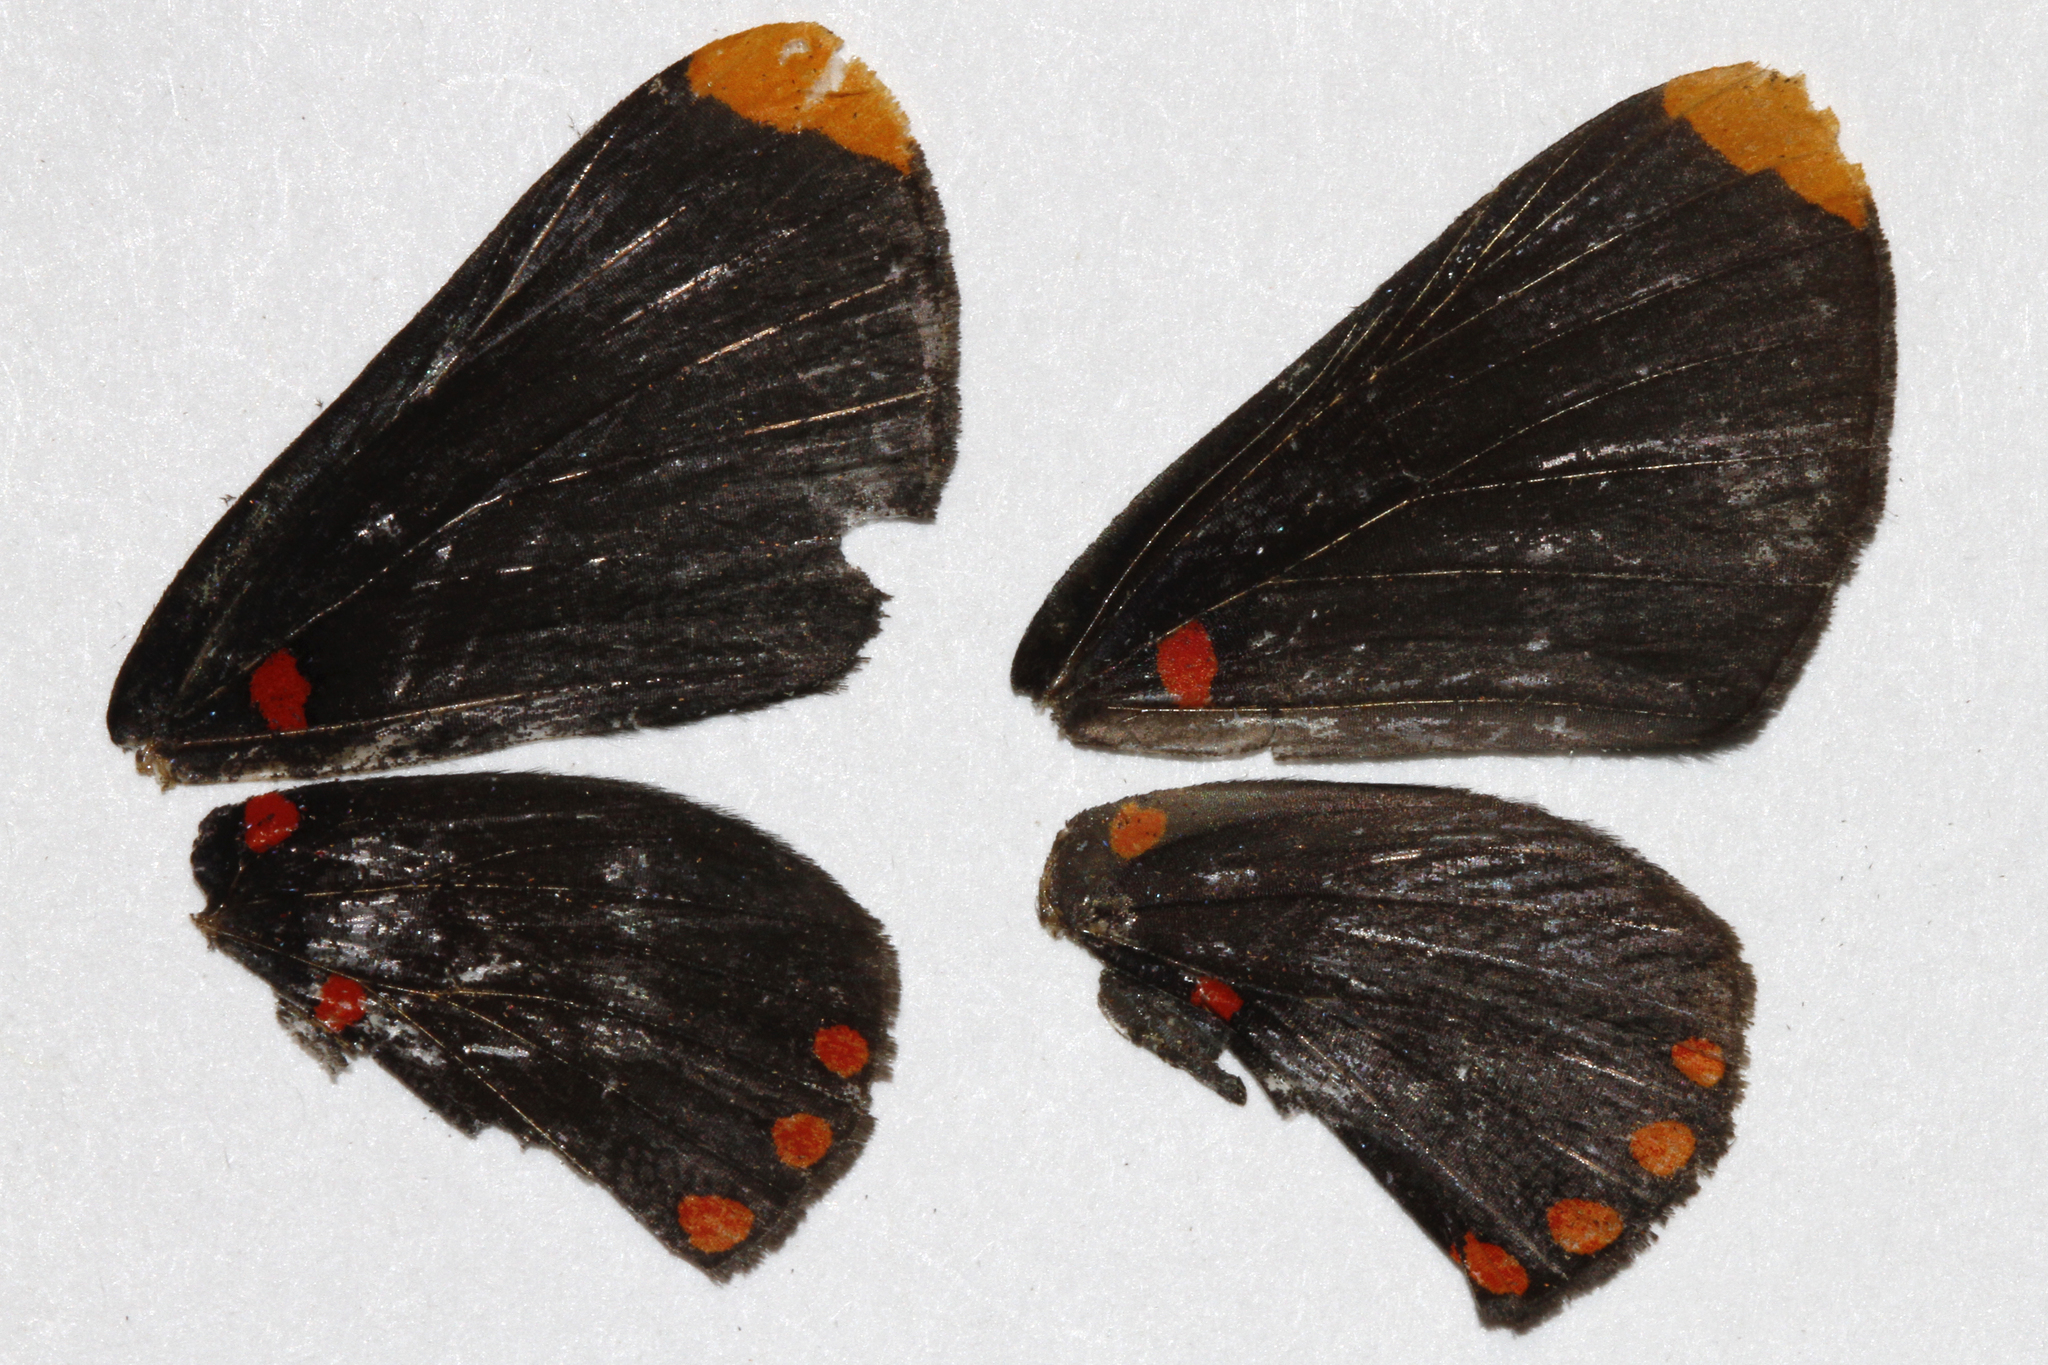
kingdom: Animalia
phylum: Arthropoda
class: Insecta
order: Lepidoptera
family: Lycaenidae
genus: Melanis
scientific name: Melanis pixe
